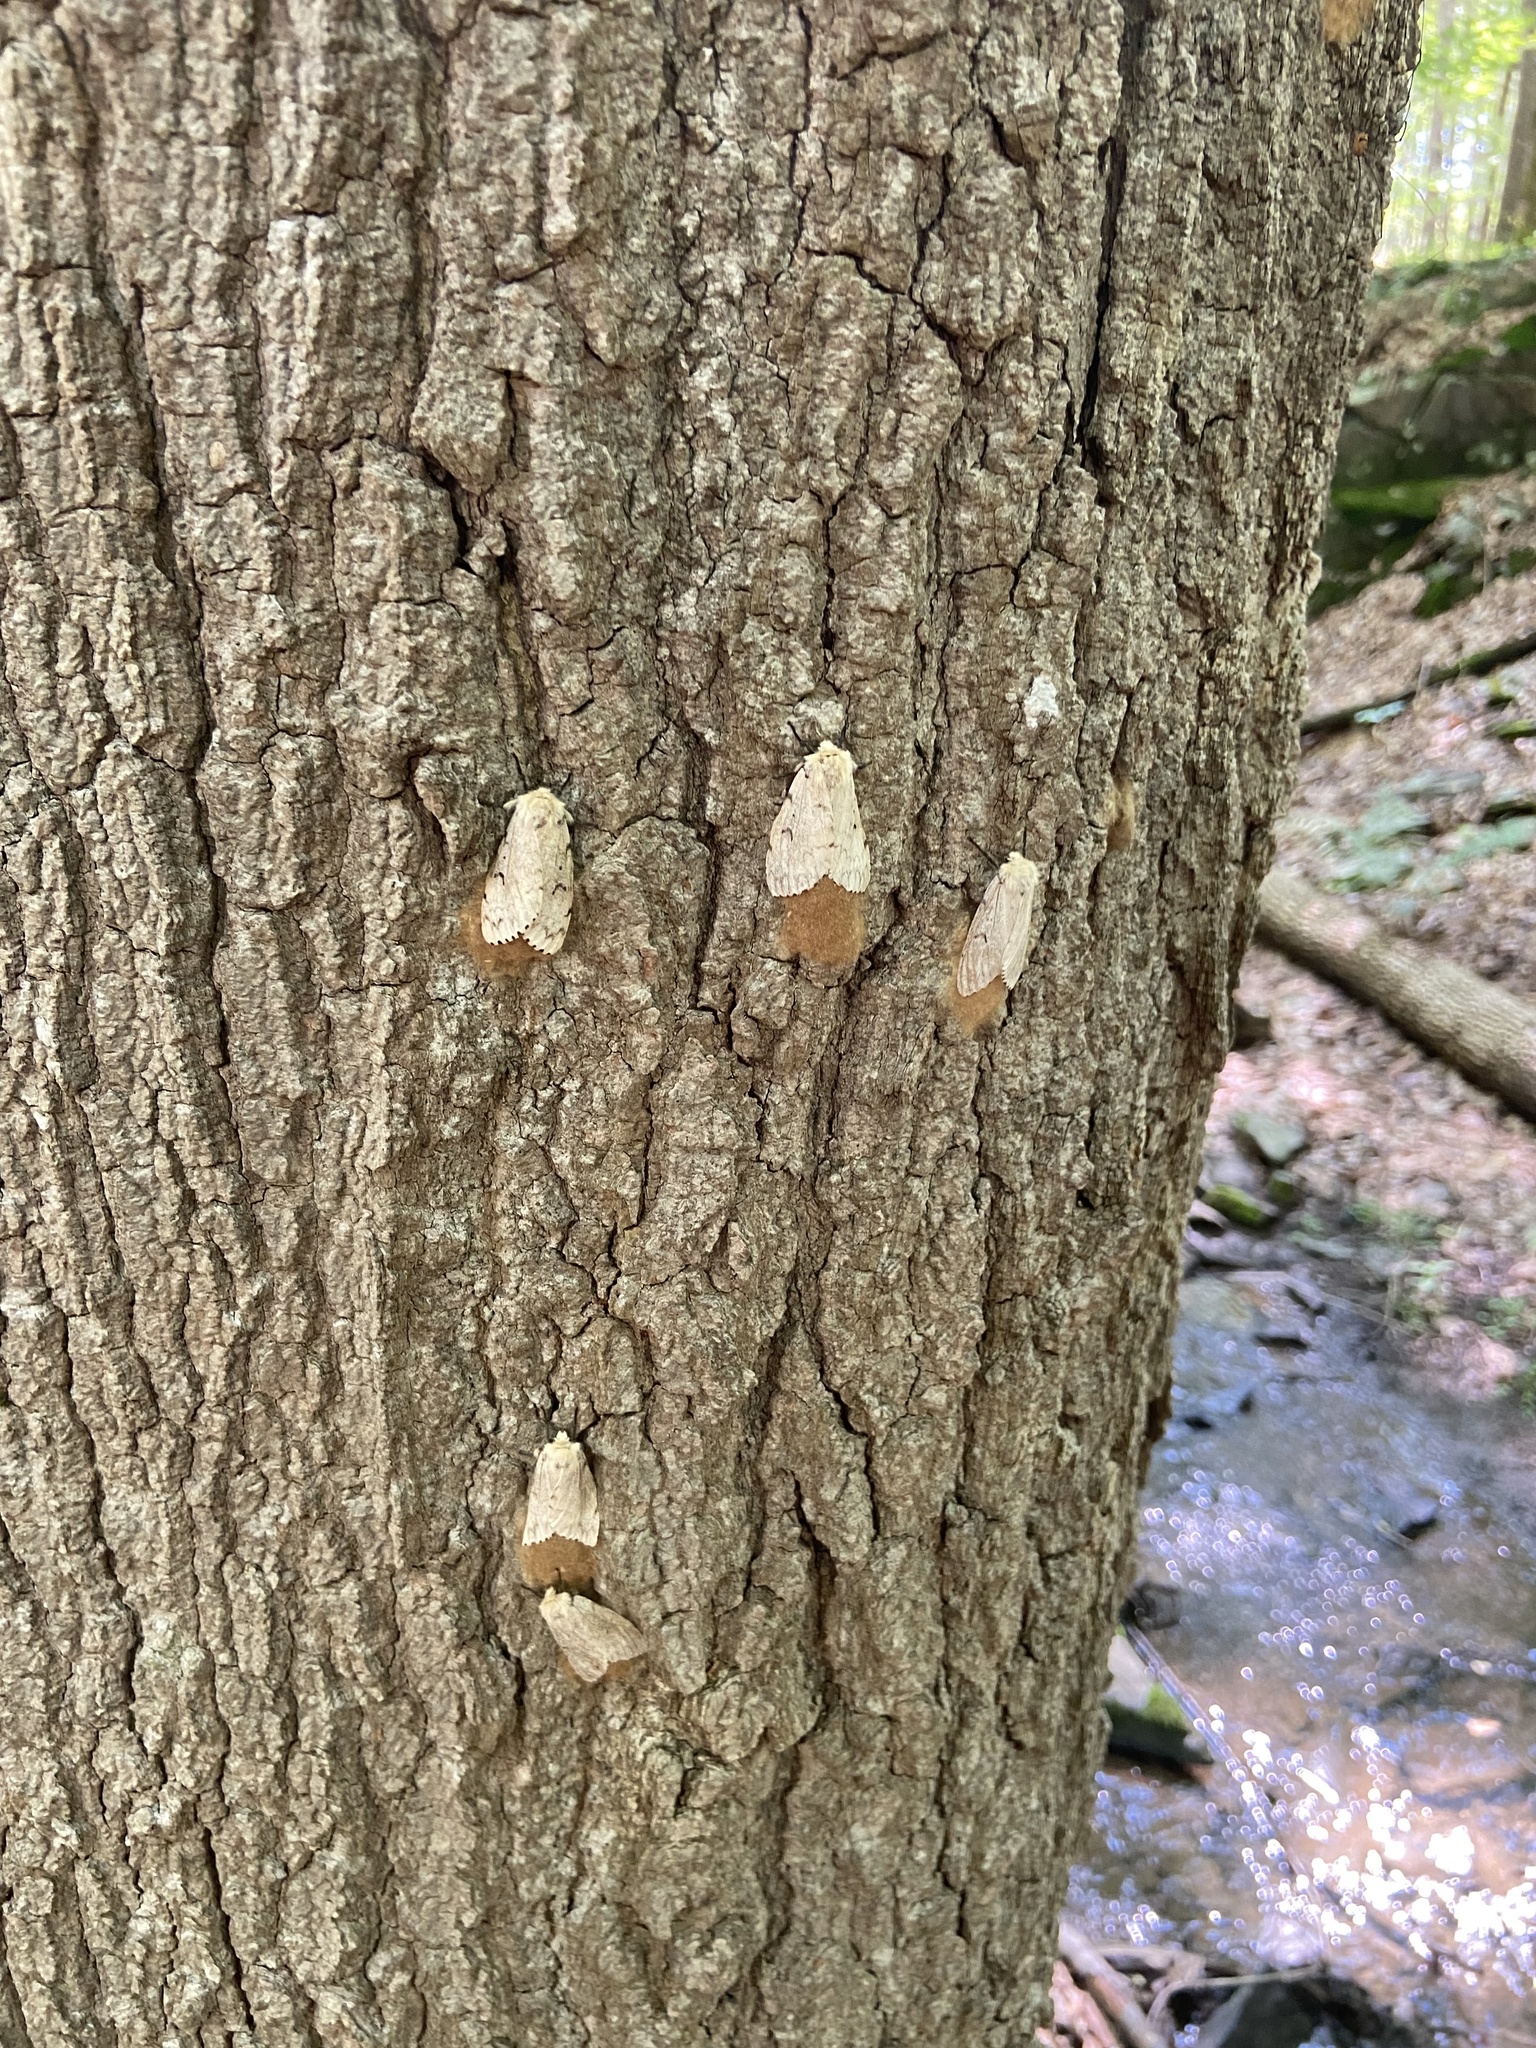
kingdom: Animalia
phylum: Arthropoda
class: Insecta
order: Lepidoptera
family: Erebidae
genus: Lymantria
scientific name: Lymantria dispar
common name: Gypsy moth
